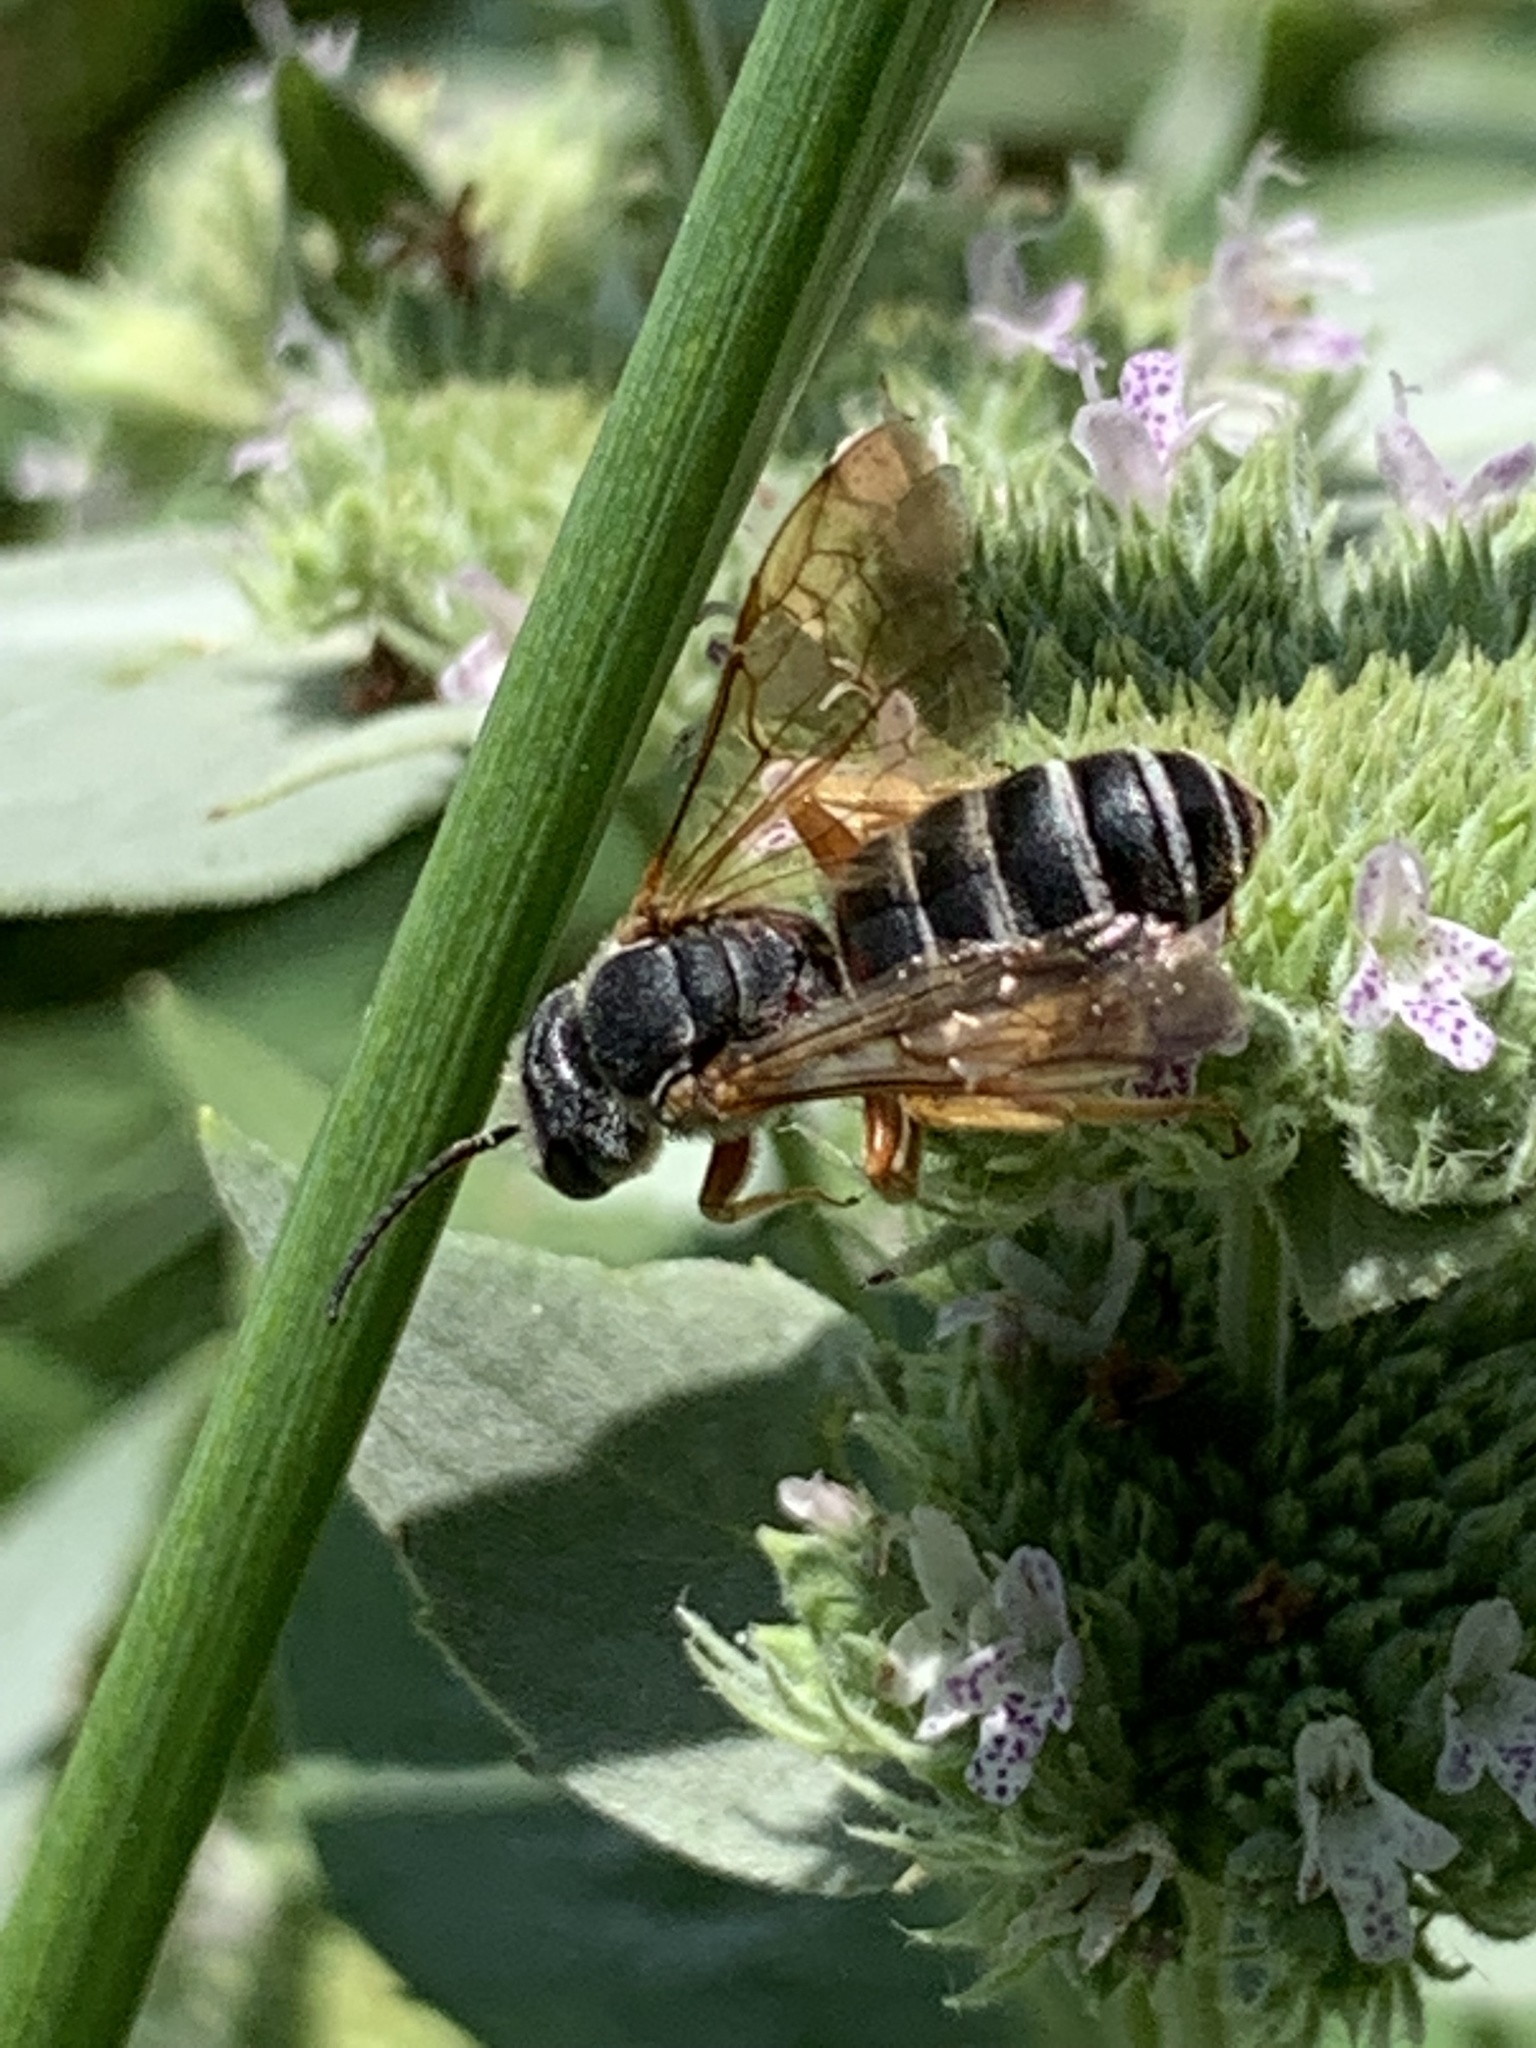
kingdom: Animalia
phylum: Arthropoda
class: Insecta
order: Hymenoptera
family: Halictidae
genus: Halictus
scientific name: Halictus parallelus
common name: Parallel-striped sweat bee
